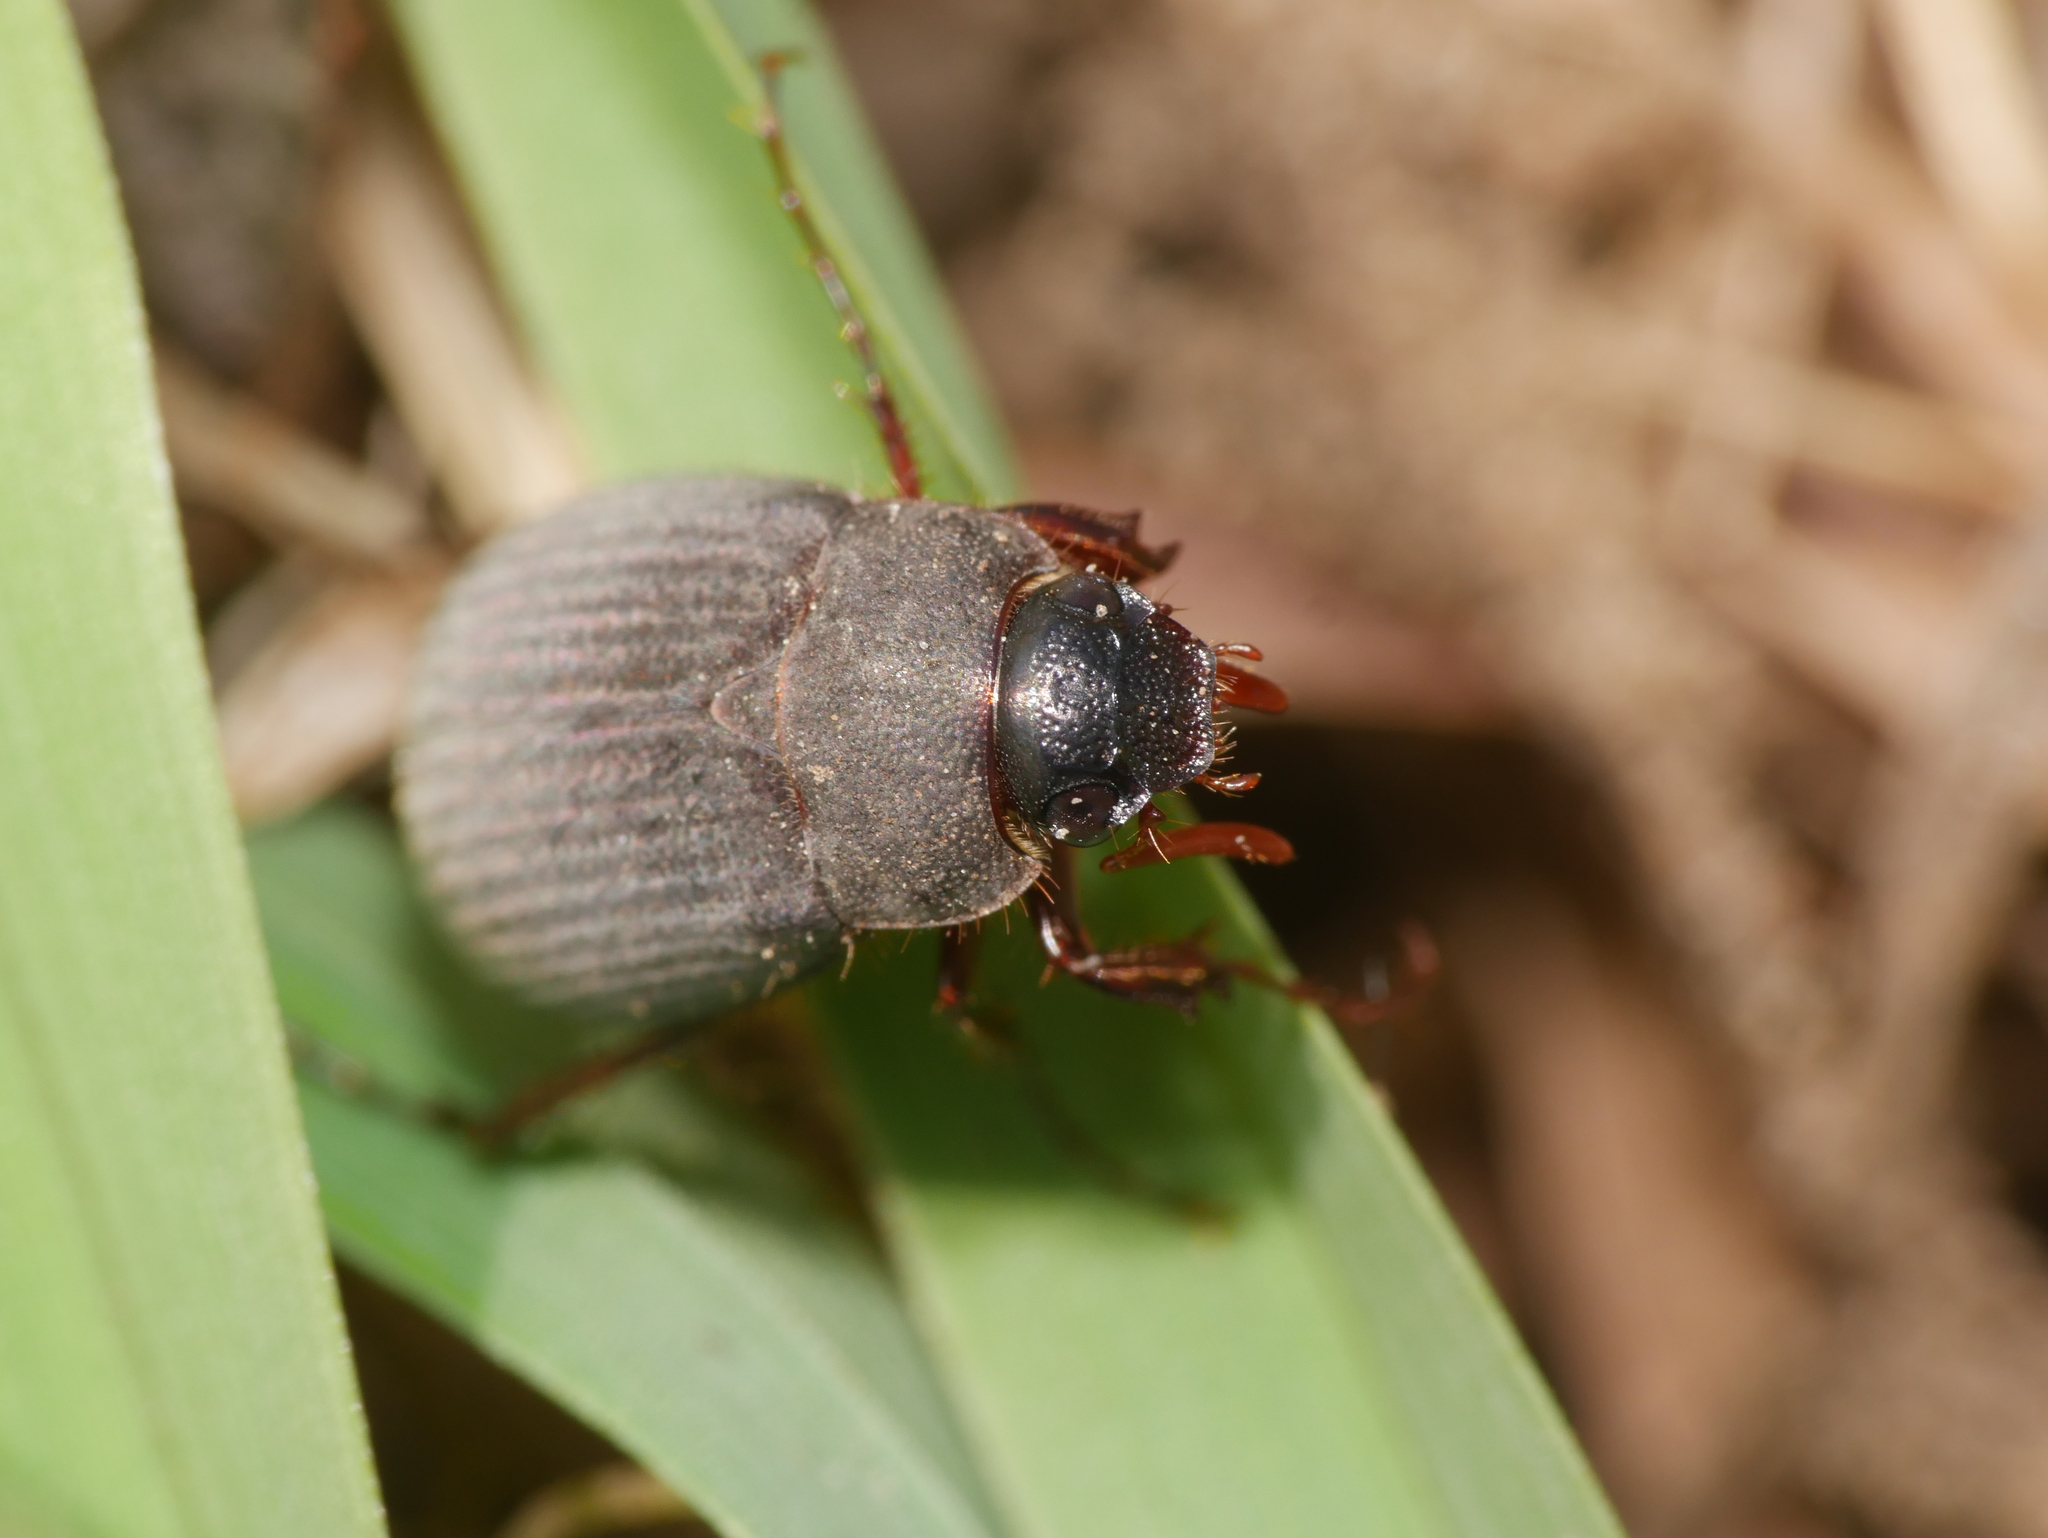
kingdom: Animalia
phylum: Arthropoda
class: Insecta
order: Coleoptera
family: Scarabaeidae
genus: Maladera
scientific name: Maladera holosericea
